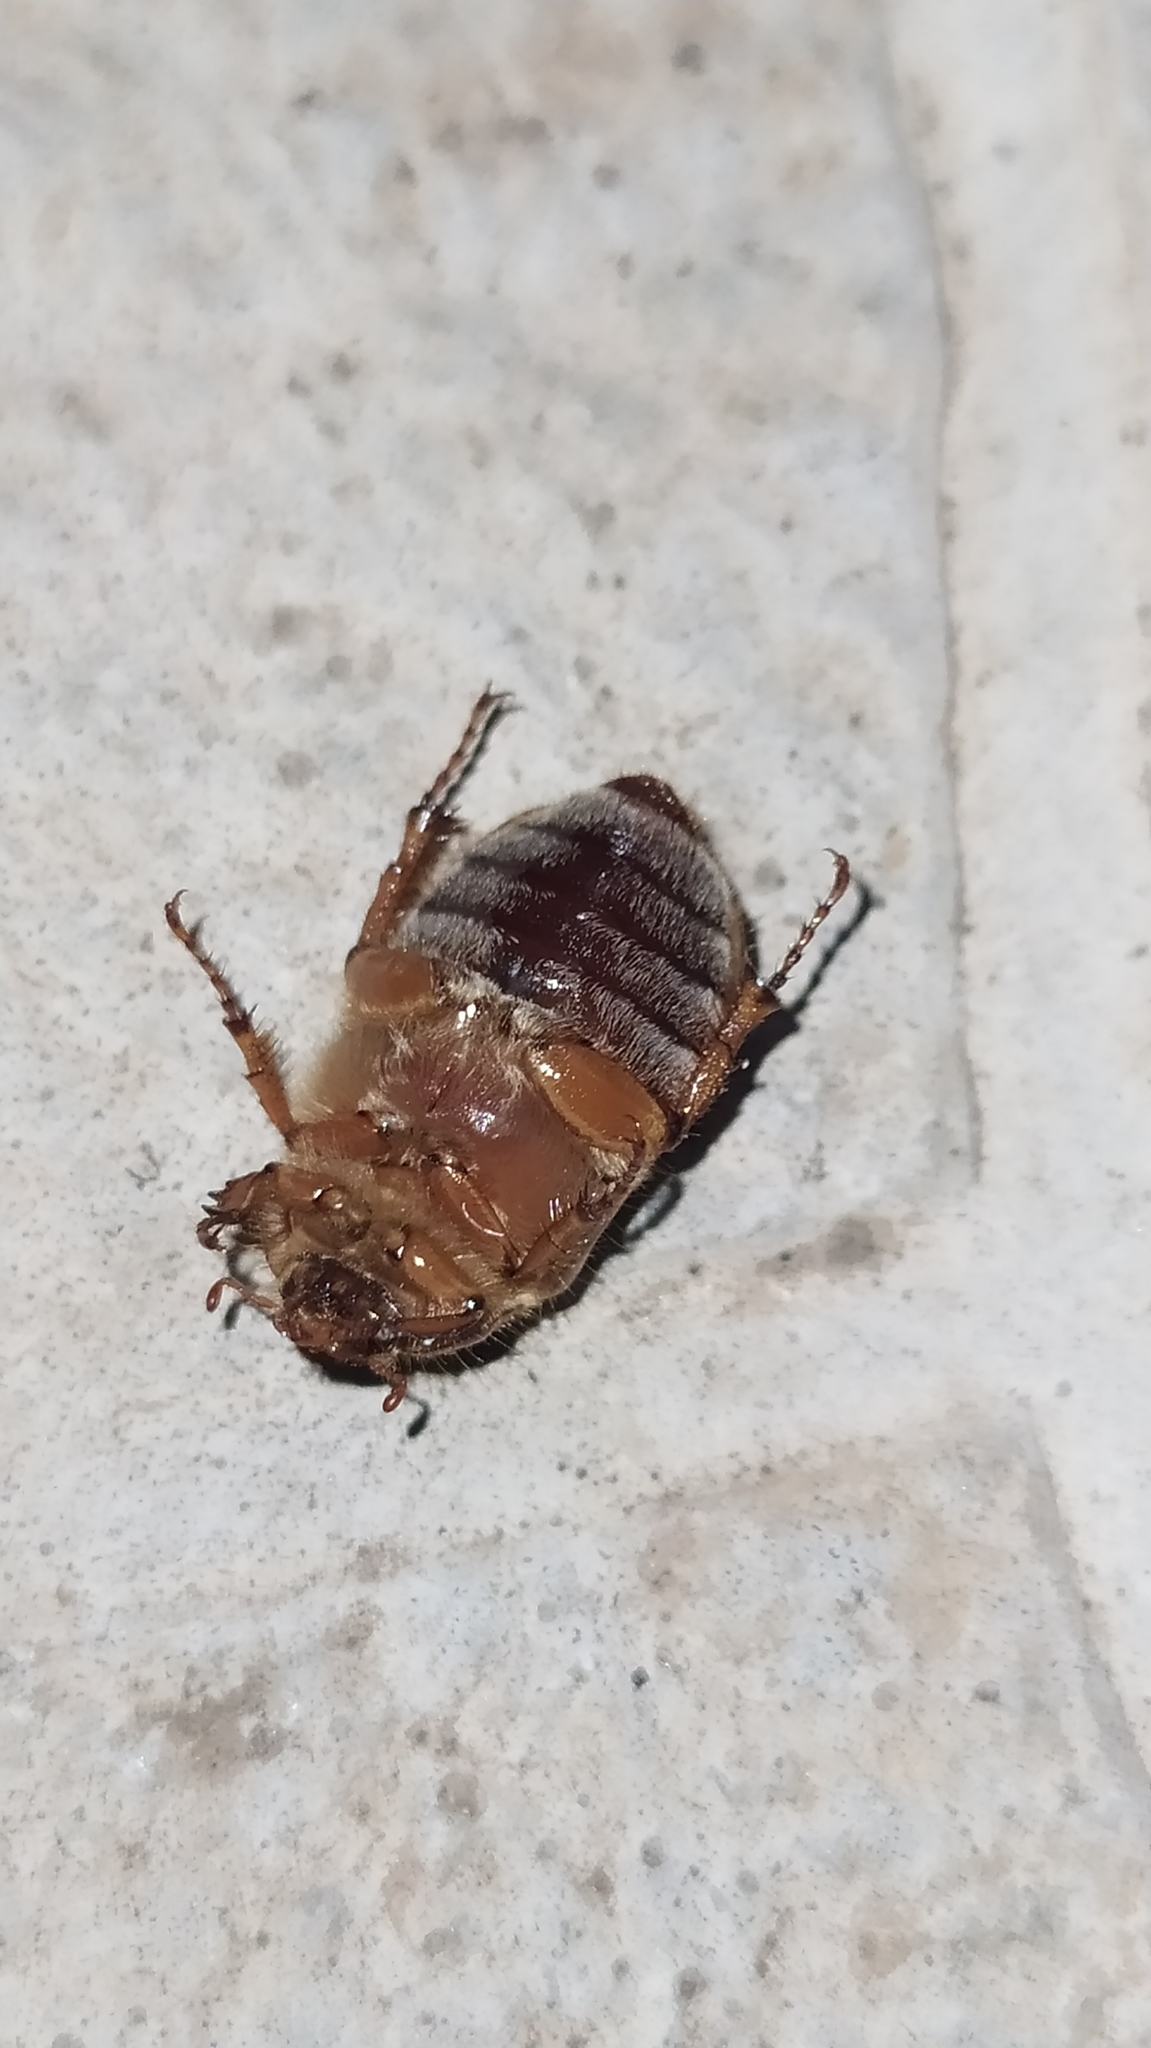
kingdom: Animalia
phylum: Arthropoda
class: Insecta
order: Coleoptera
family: Scarabaeidae
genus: Amphimallon
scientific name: Amphimallon solstitiale
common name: Summer chafer
